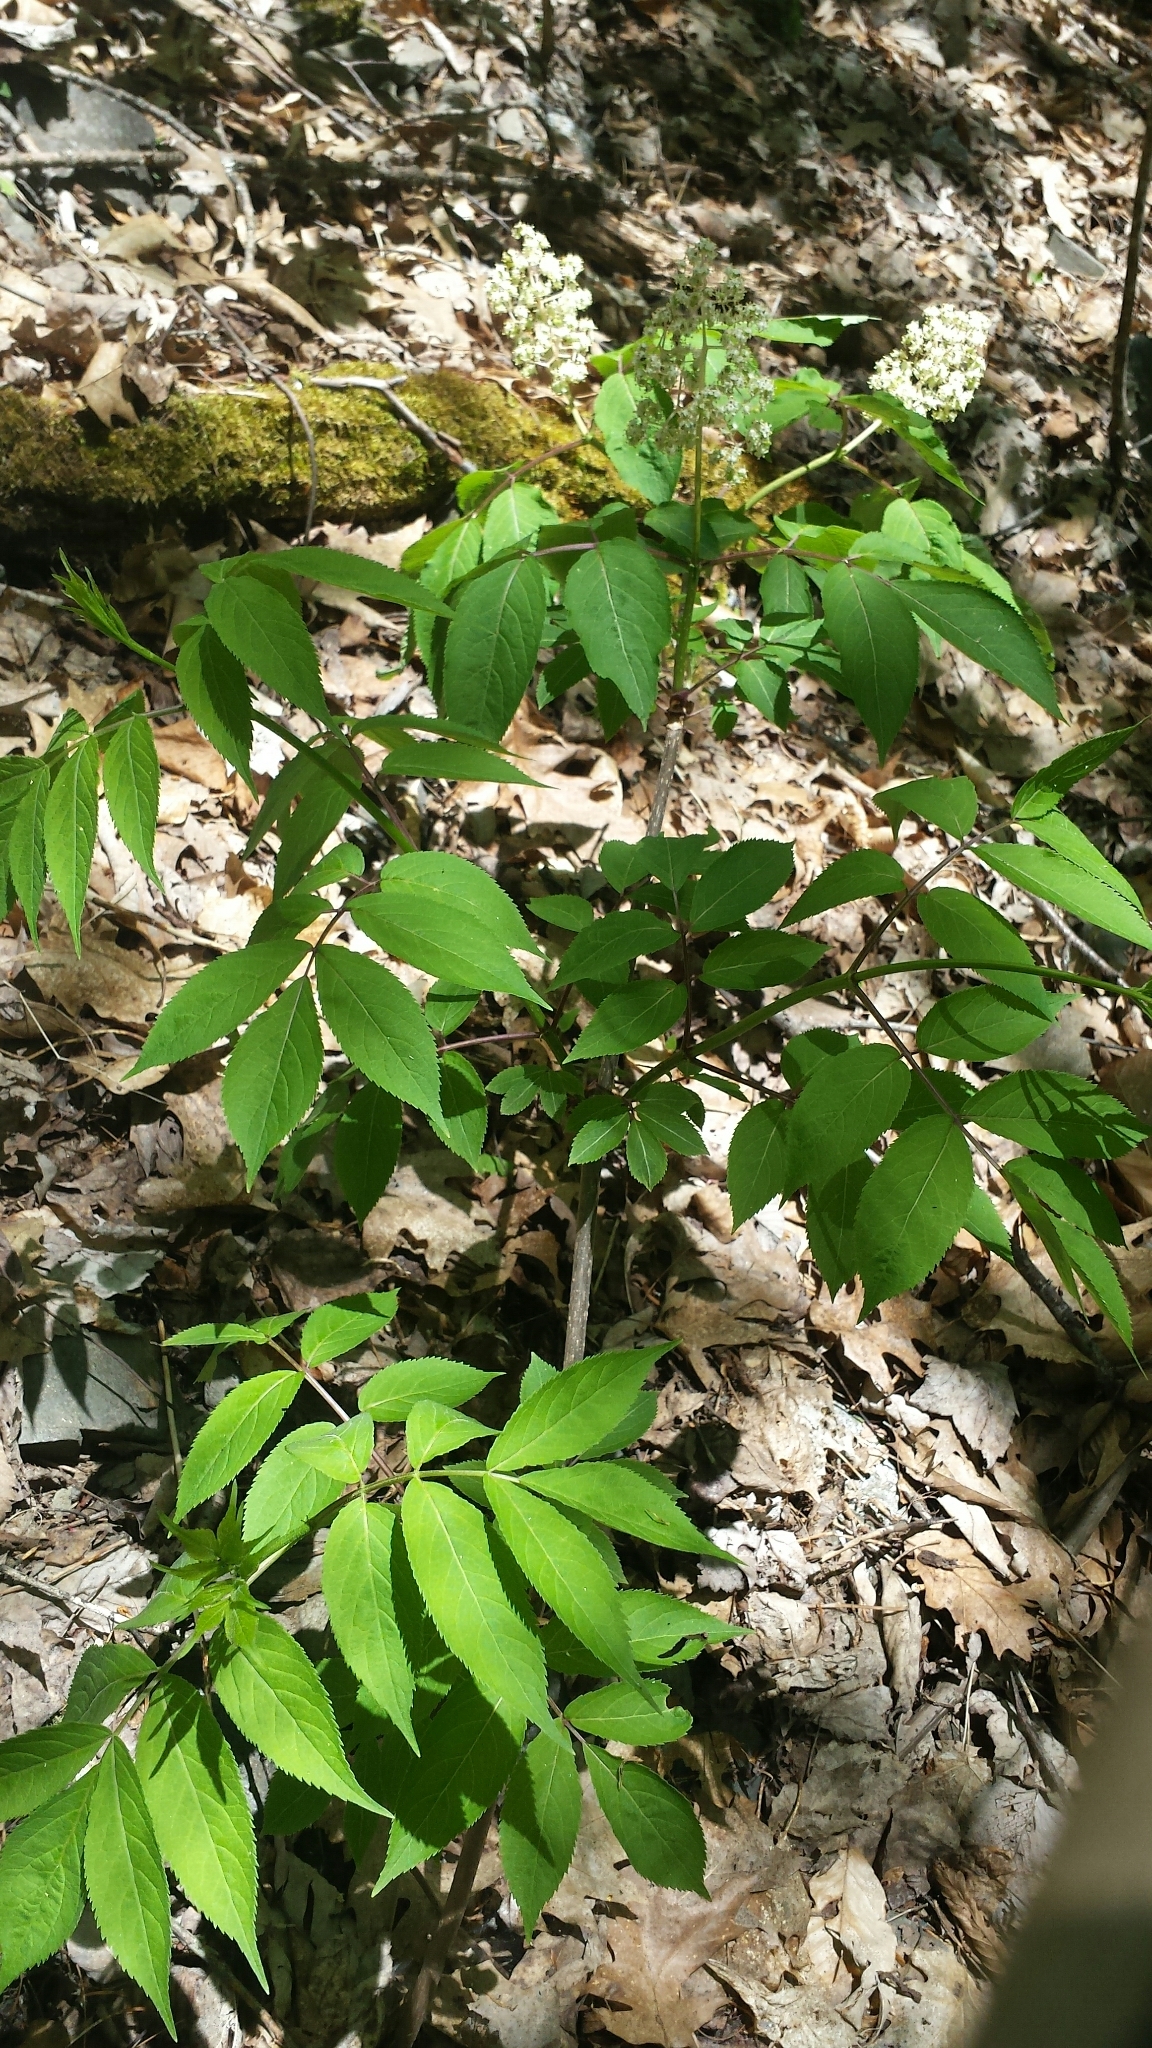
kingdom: Plantae
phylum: Tracheophyta
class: Magnoliopsida
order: Dipsacales
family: Viburnaceae
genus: Sambucus
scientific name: Sambucus racemosa
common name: Red-berried elder
